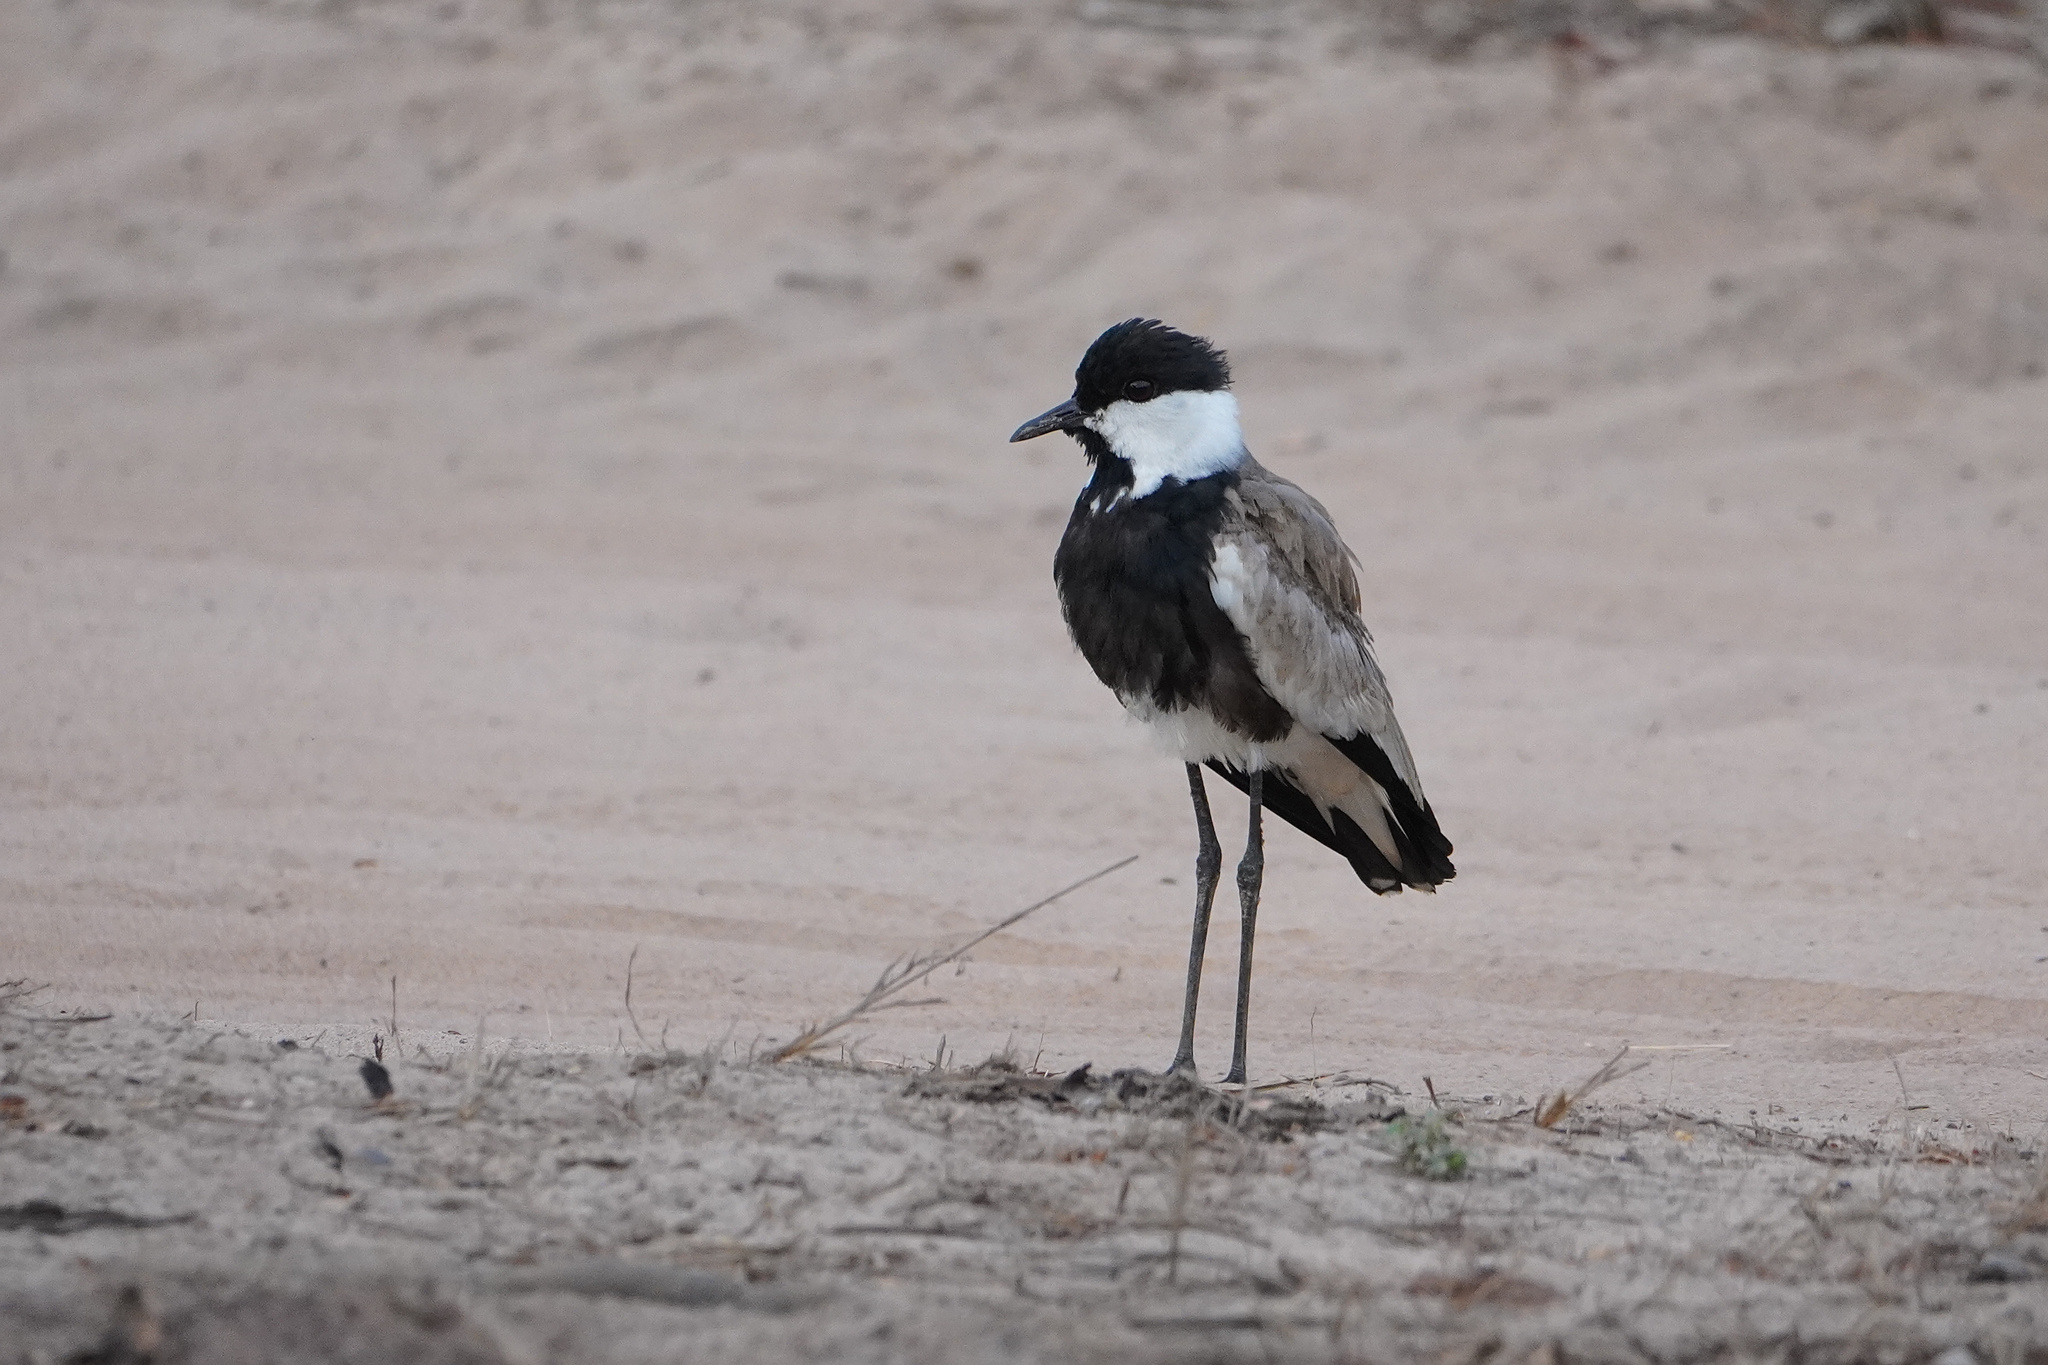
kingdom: Animalia
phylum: Chordata
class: Aves
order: Charadriiformes
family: Charadriidae
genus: Vanellus
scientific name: Vanellus spinosus
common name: Spur-winged lapwing
